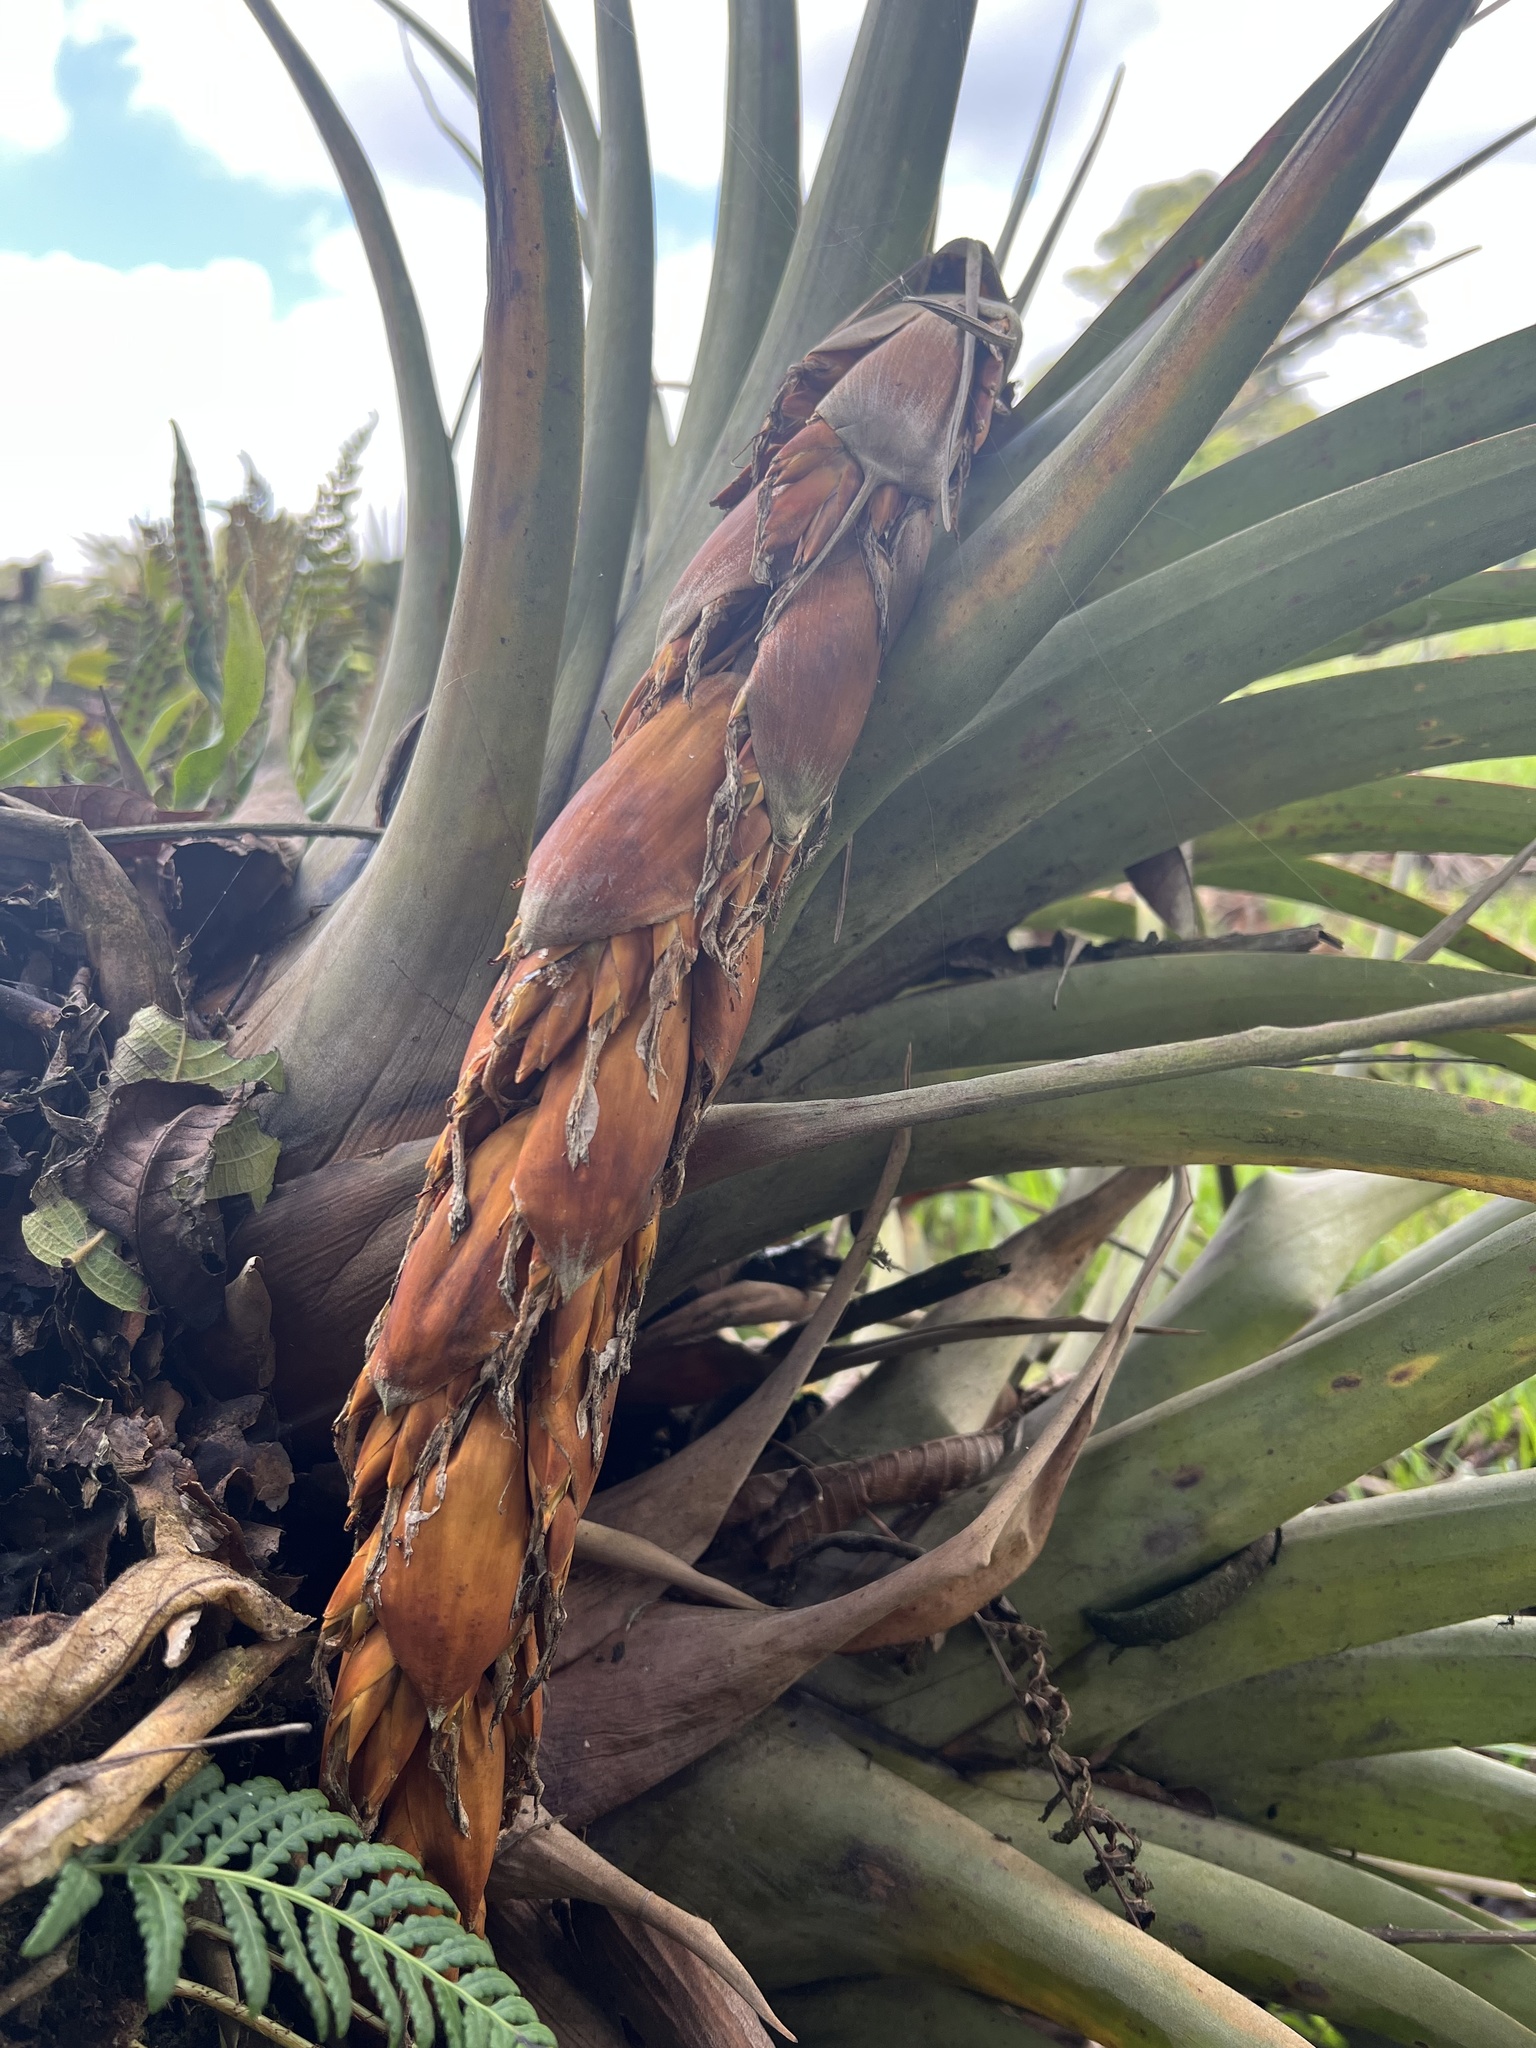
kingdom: Plantae
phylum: Tracheophyta
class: Liliopsida
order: Poales
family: Bromeliaceae
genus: Vriesea
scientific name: Vriesea tequendamae
